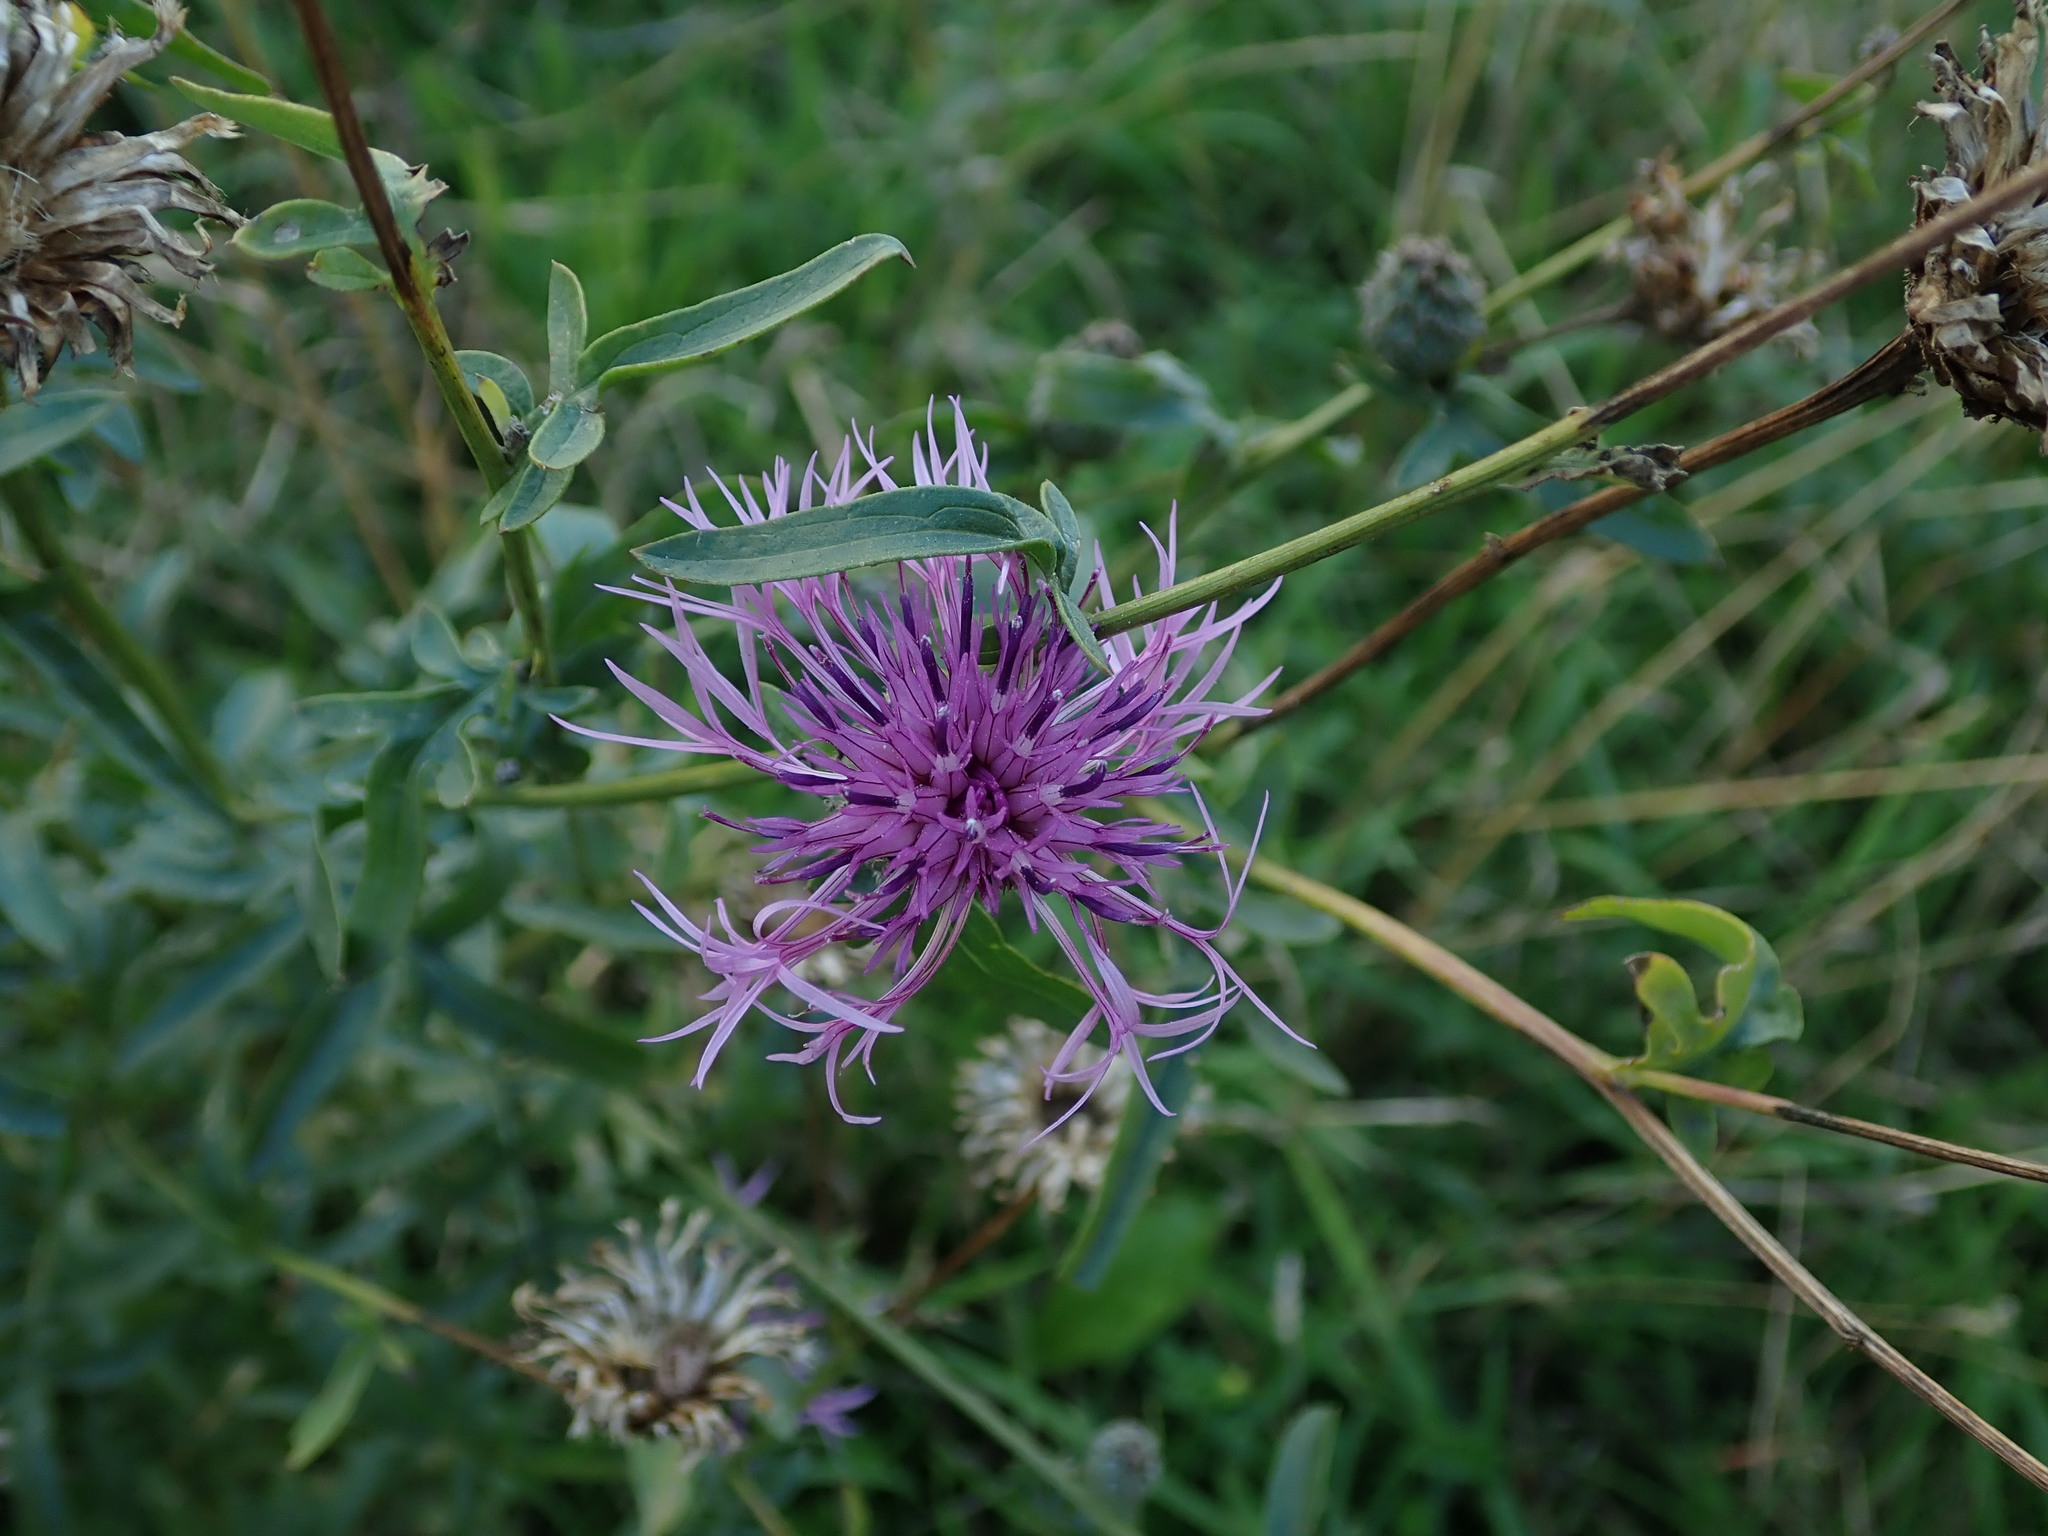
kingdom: Plantae
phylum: Tracheophyta
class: Magnoliopsida
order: Asterales
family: Asteraceae
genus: Centaurea
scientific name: Centaurea scabiosa
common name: Greater knapweed
